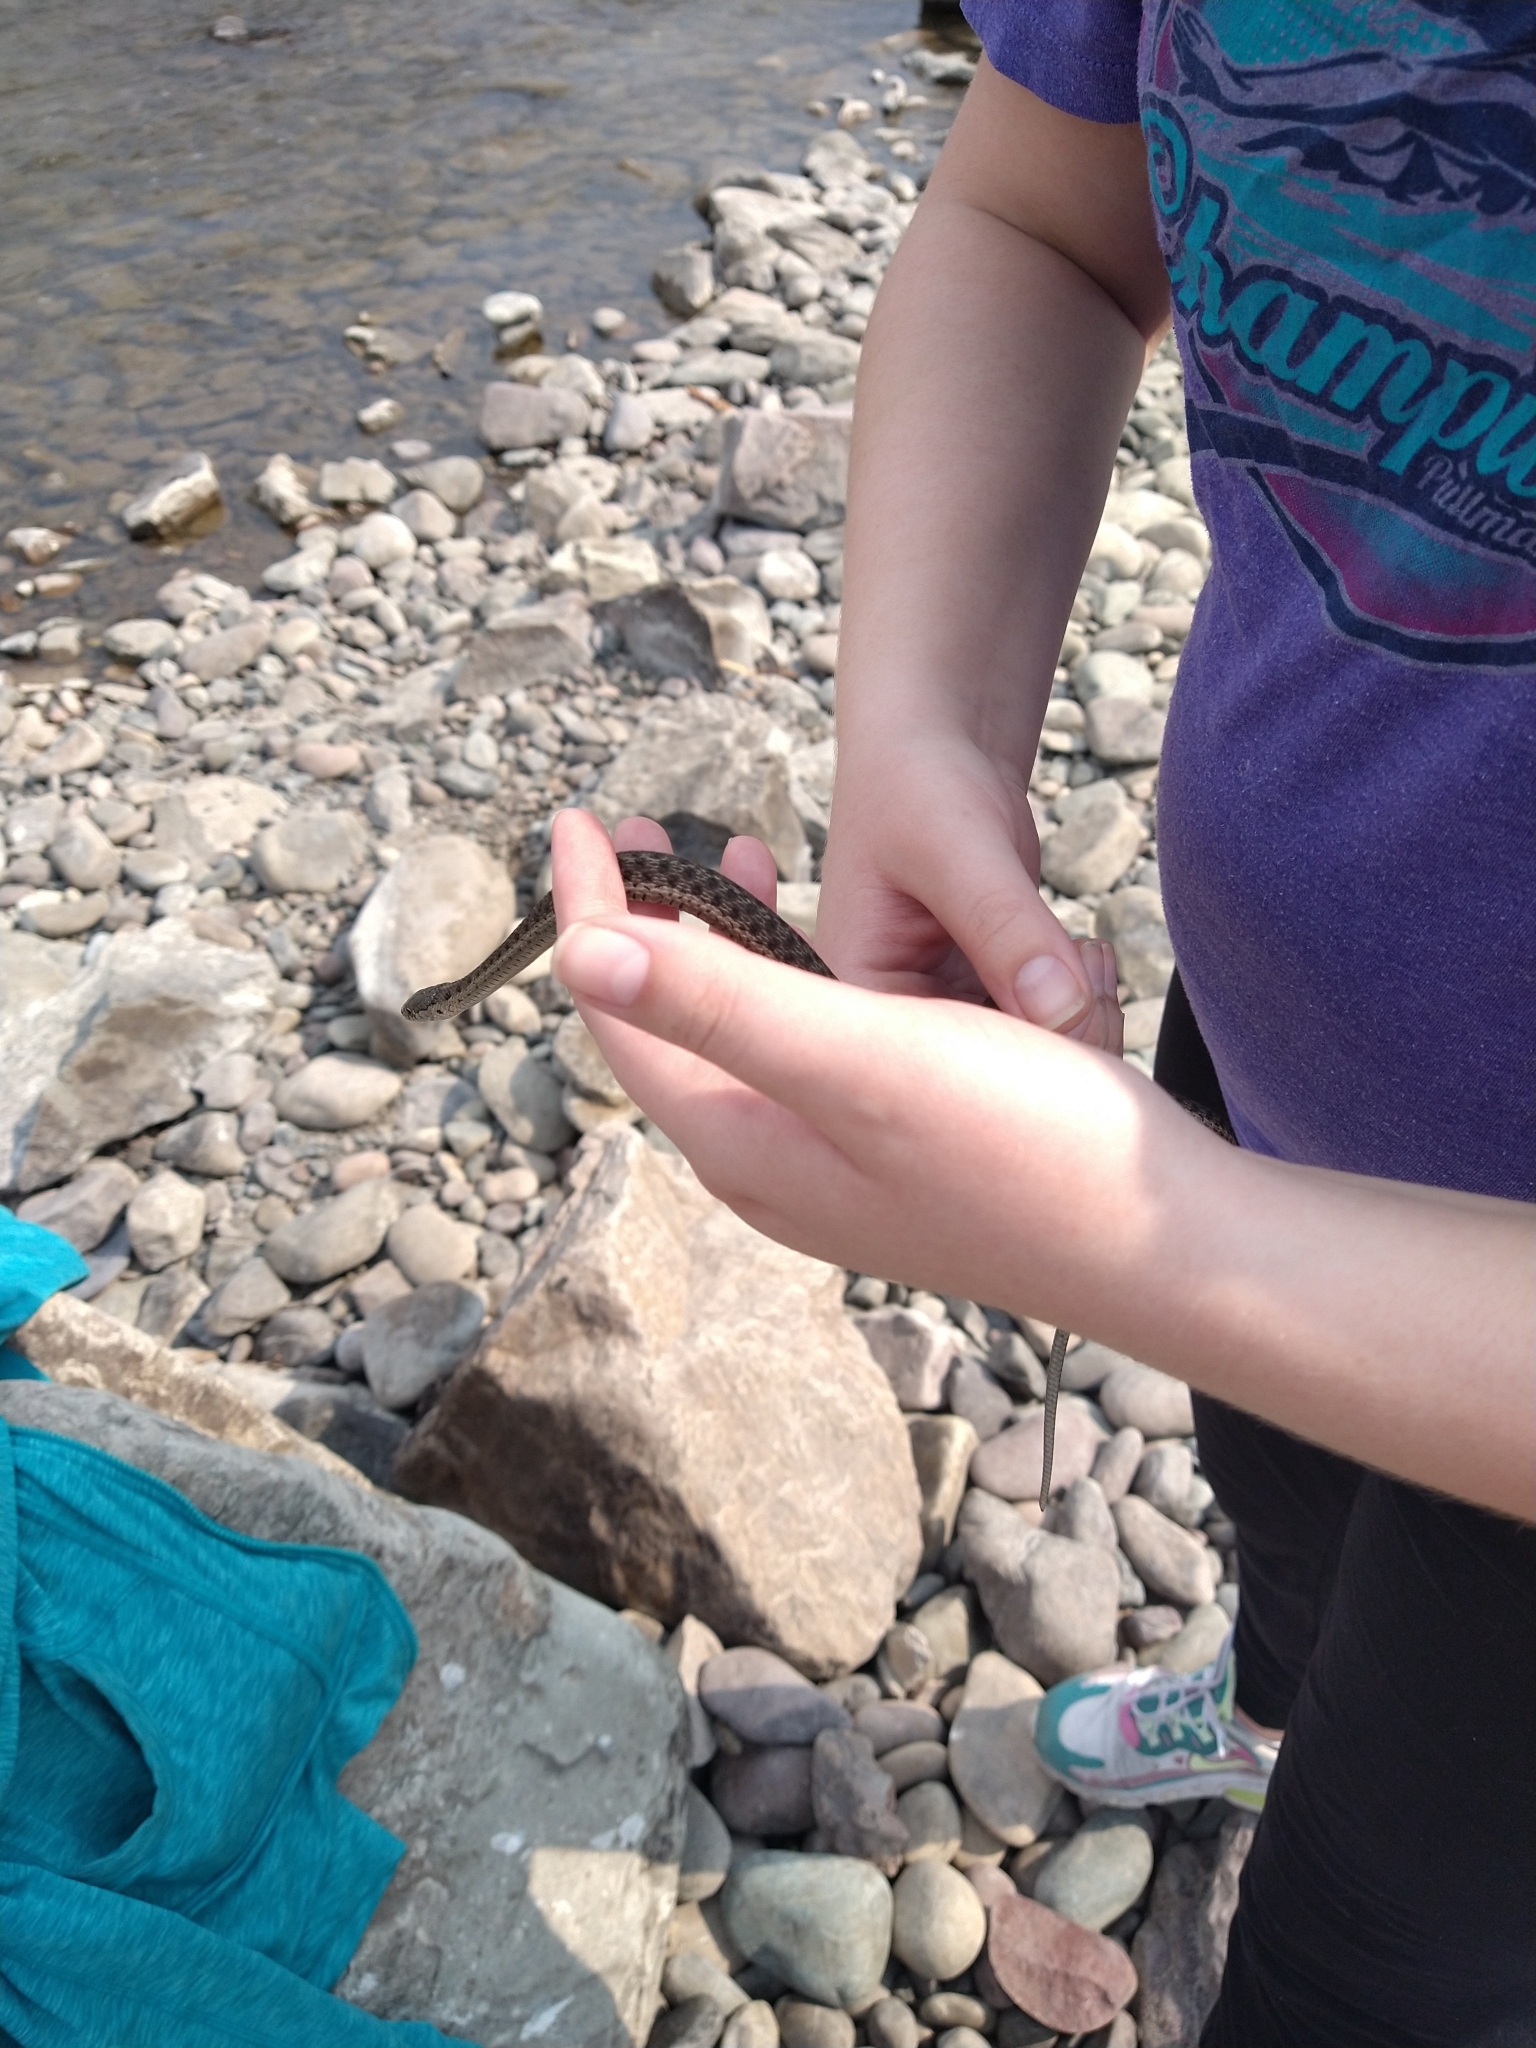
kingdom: Animalia
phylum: Chordata
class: Squamata
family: Colubridae
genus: Thamnophis
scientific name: Thamnophis elegans
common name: Western terrestrial garter snake
